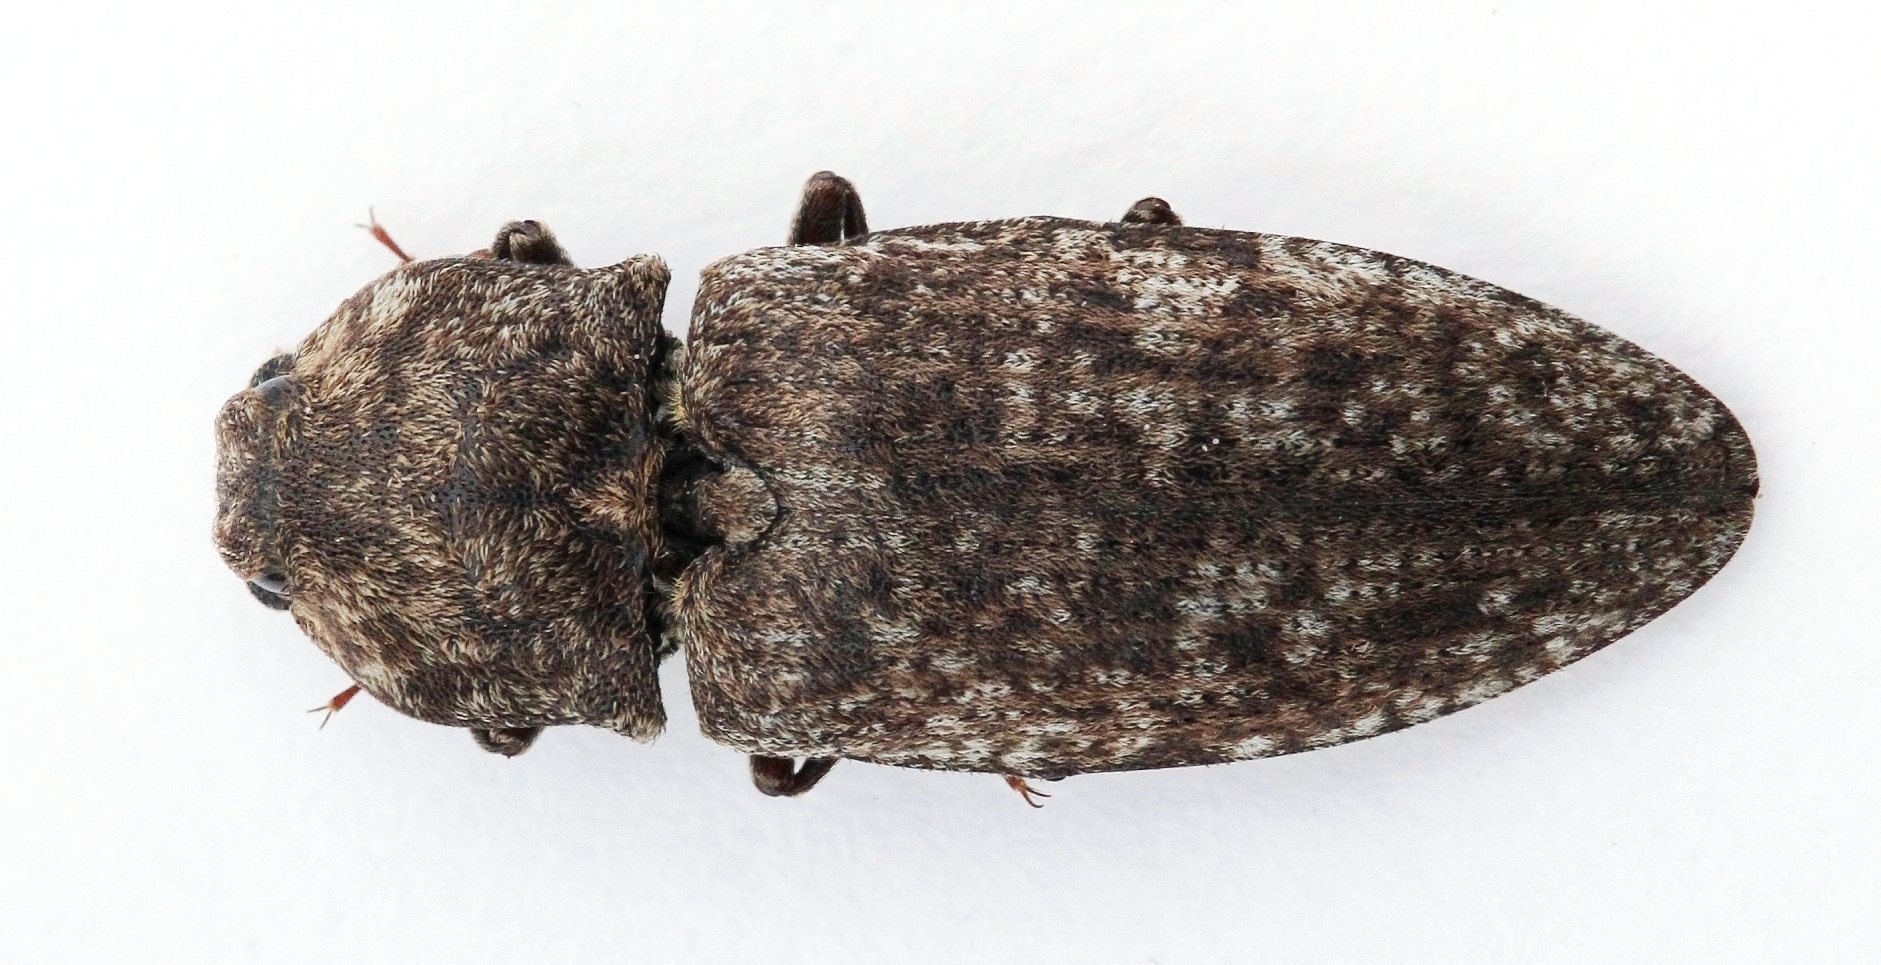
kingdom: Animalia
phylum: Arthropoda
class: Insecta
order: Coleoptera
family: Elateridae
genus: Agrypnus
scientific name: Agrypnus murinus
